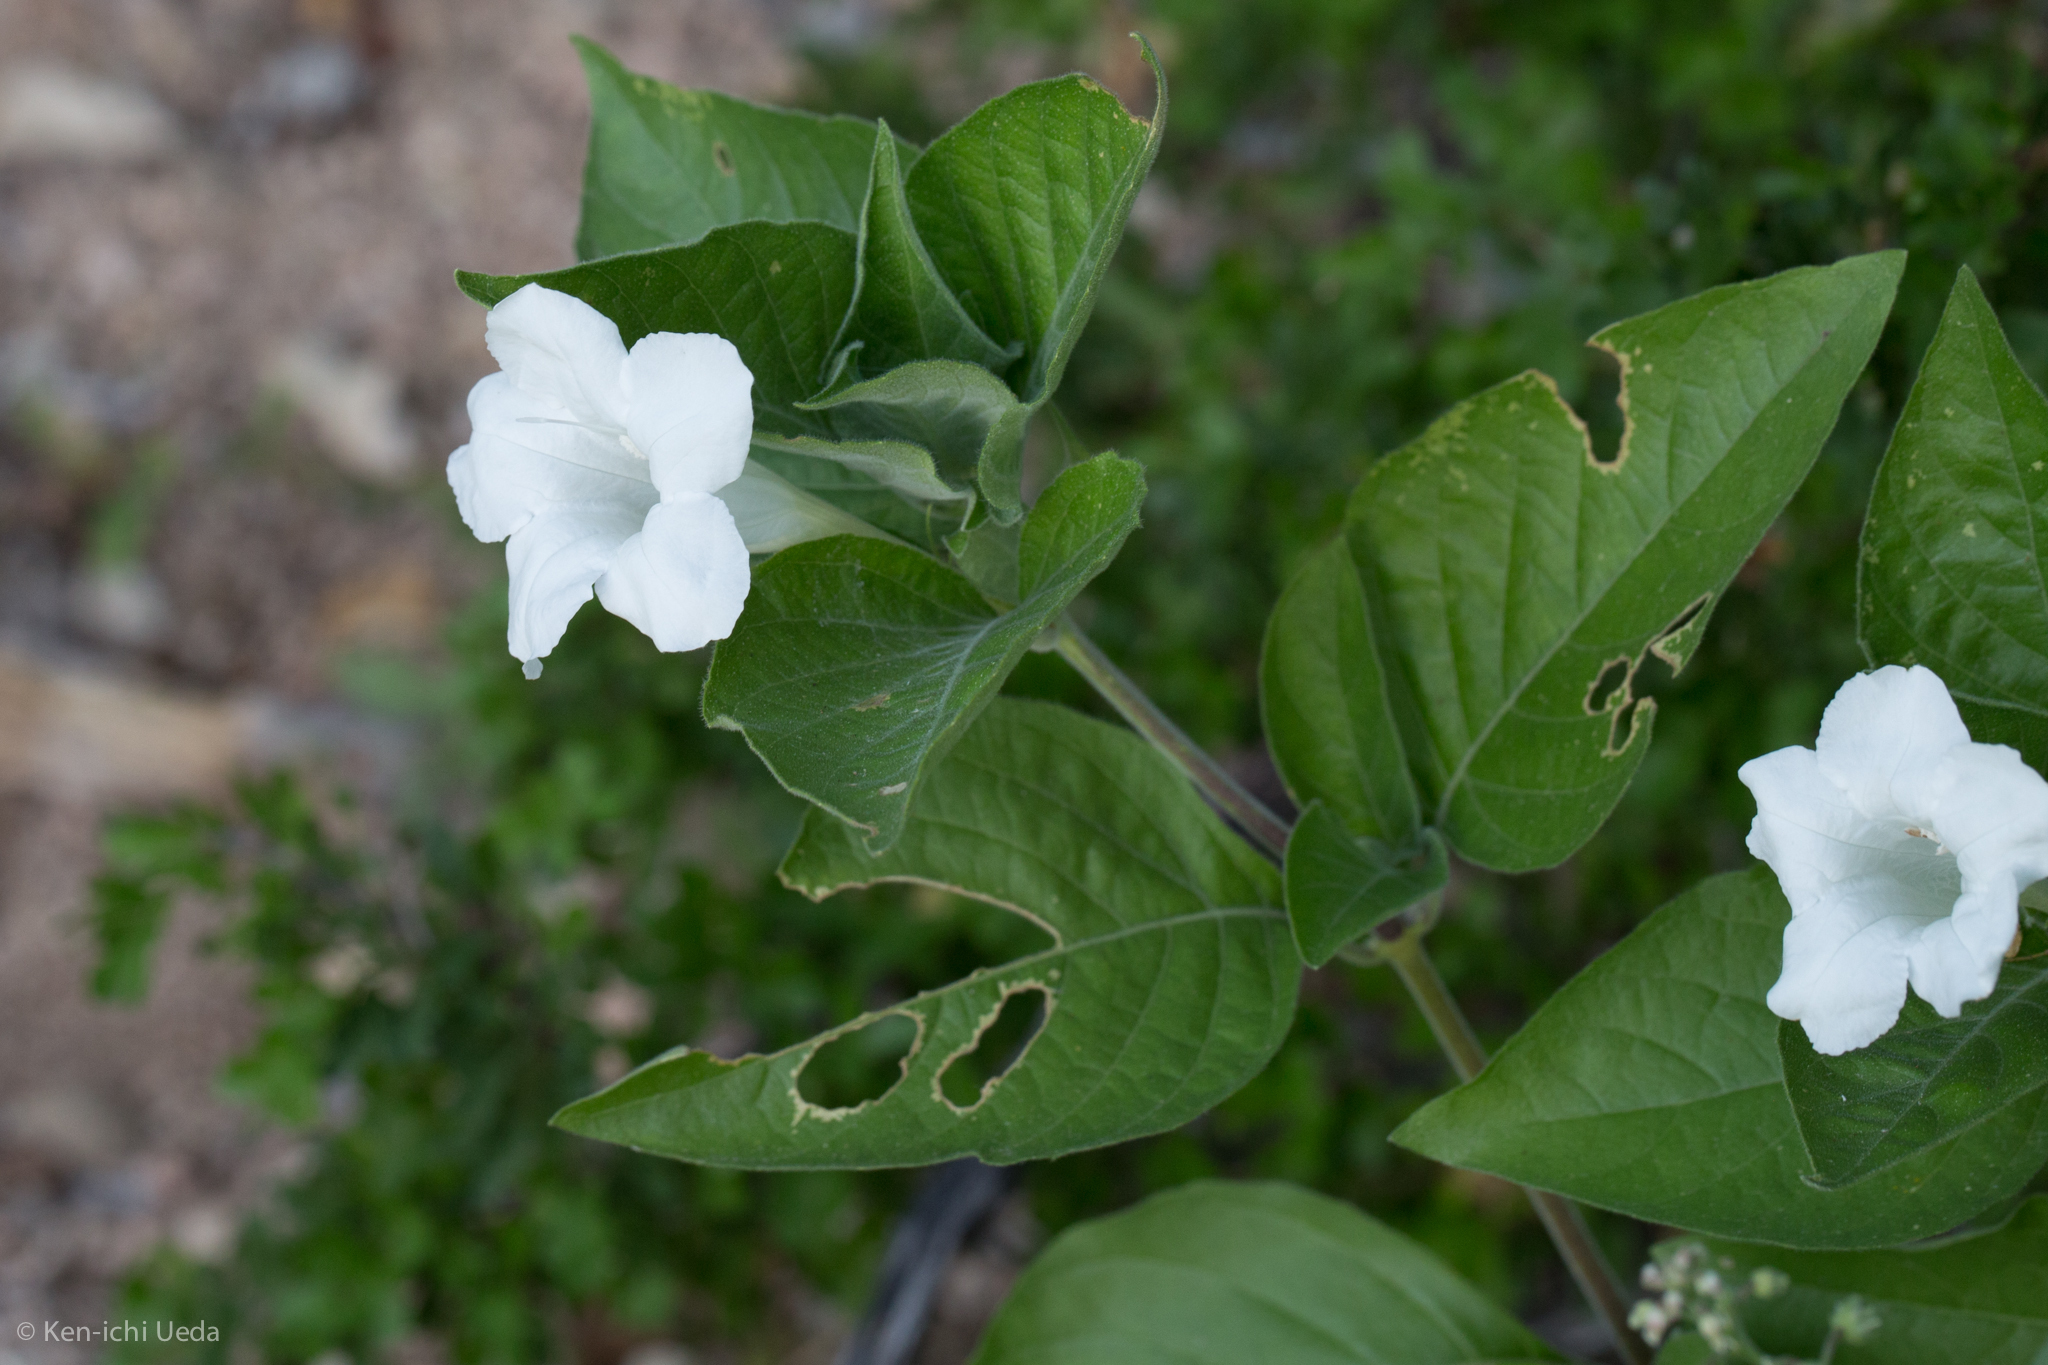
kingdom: Plantae
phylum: Tracheophyta
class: Magnoliopsida
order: Lamiales
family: Acanthaceae
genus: Ruellia
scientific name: Ruellia leucantha
